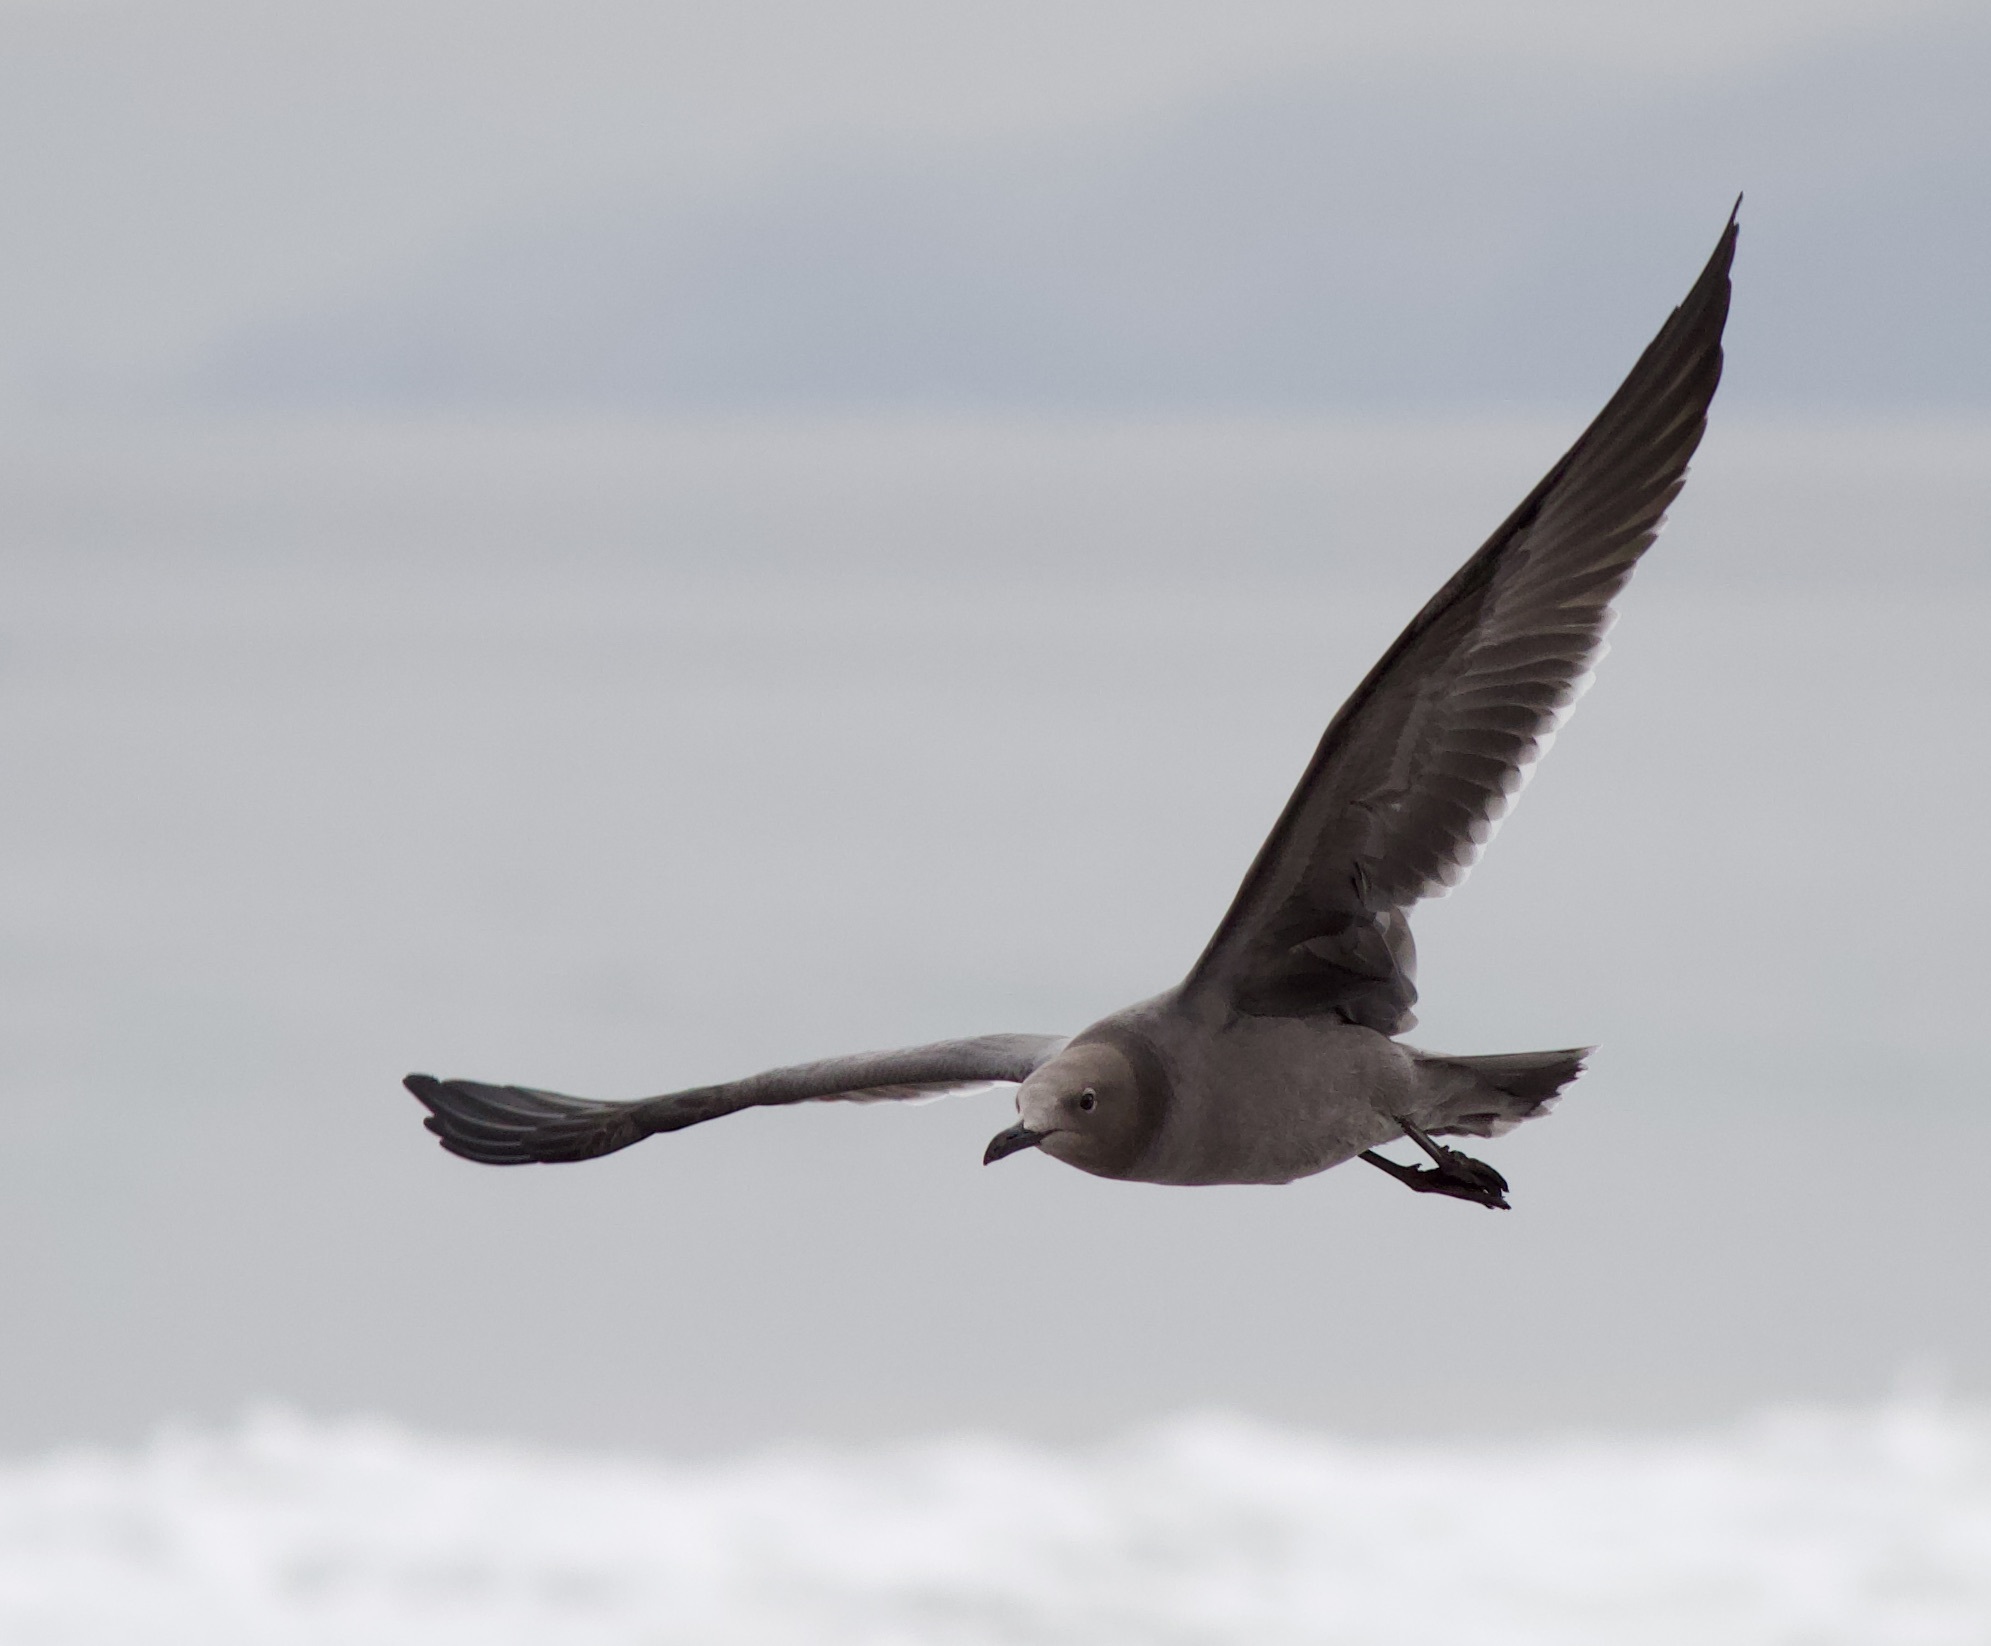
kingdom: Animalia
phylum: Chordata
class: Aves
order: Charadriiformes
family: Laridae
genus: Leucophaeus
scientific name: Leucophaeus modestus
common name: Gray gull
